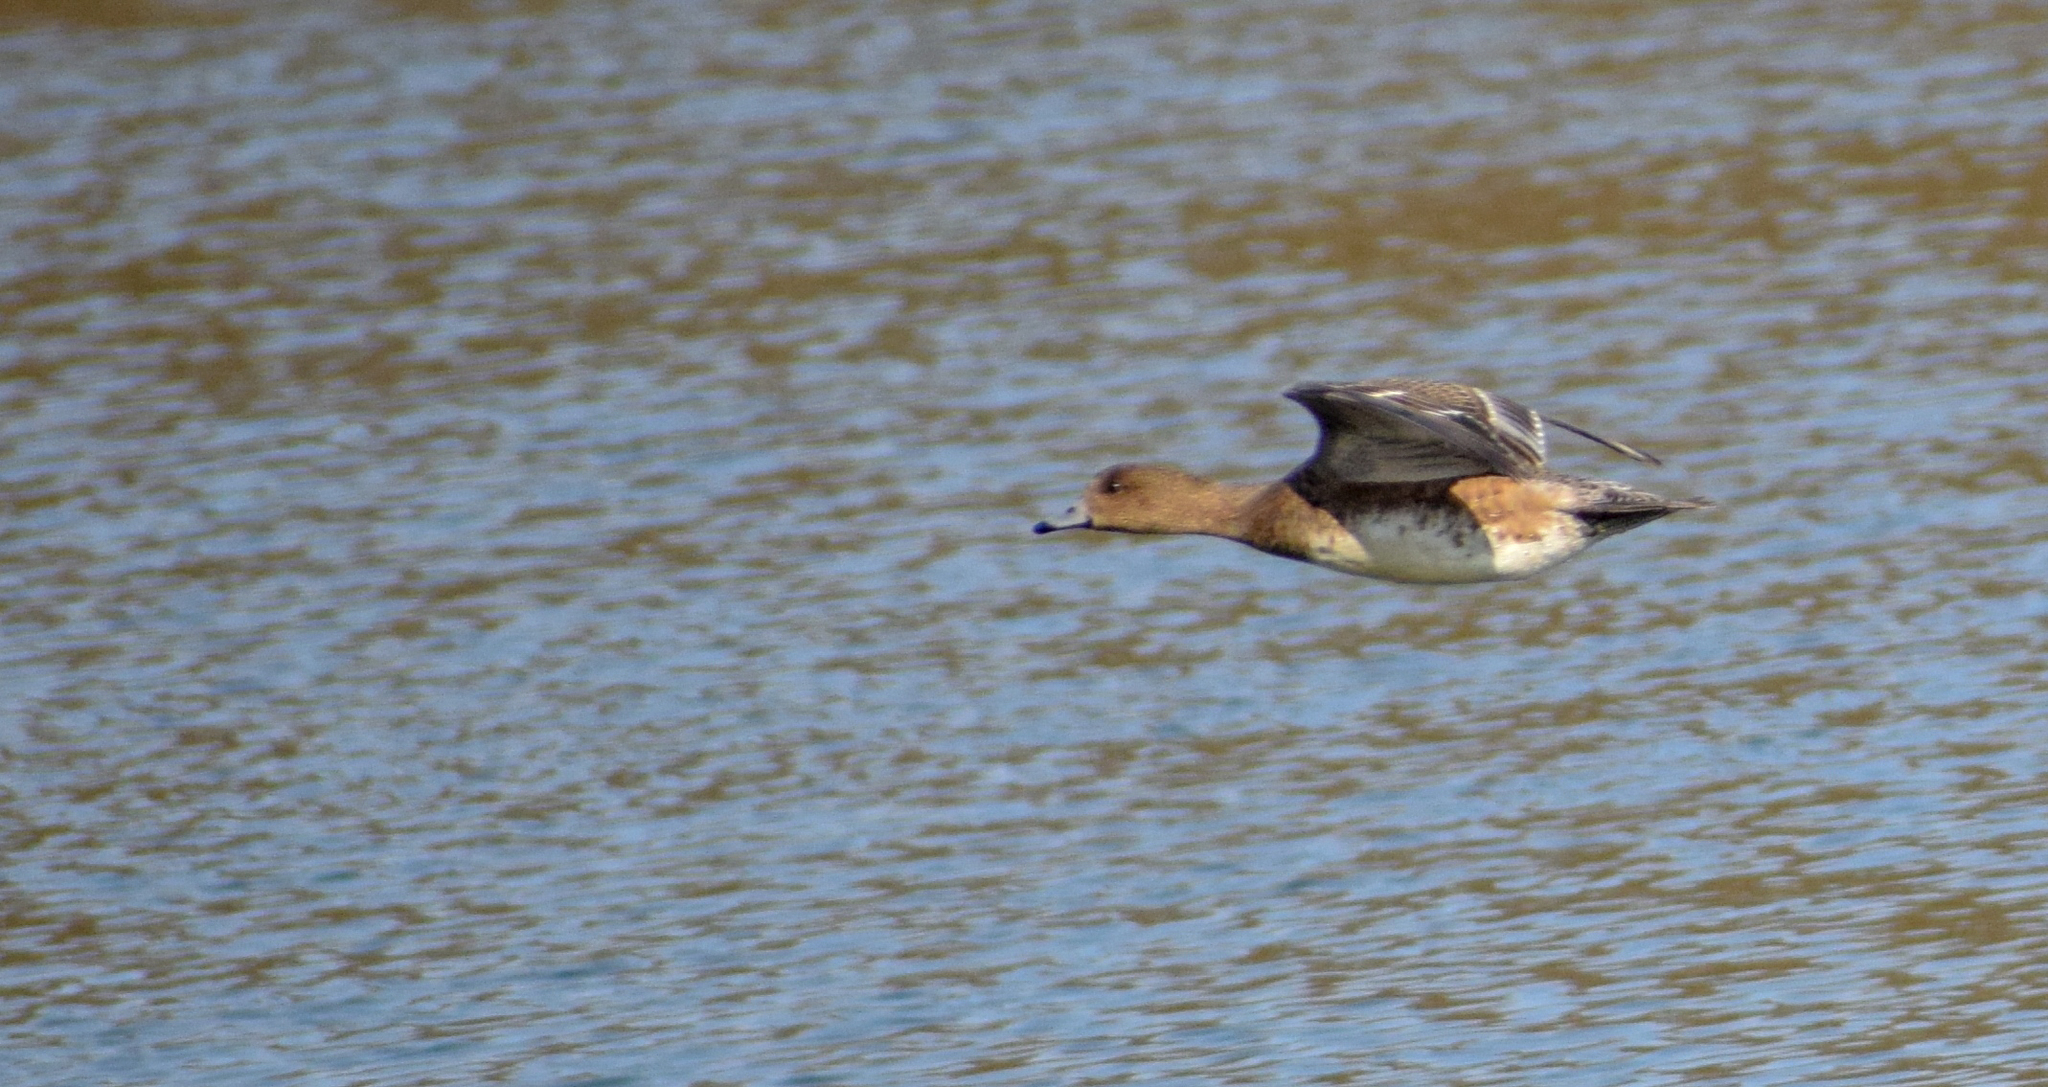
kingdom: Animalia
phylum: Chordata
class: Aves
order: Anseriformes
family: Anatidae
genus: Mareca
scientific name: Mareca penelope
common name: Eurasian wigeon
